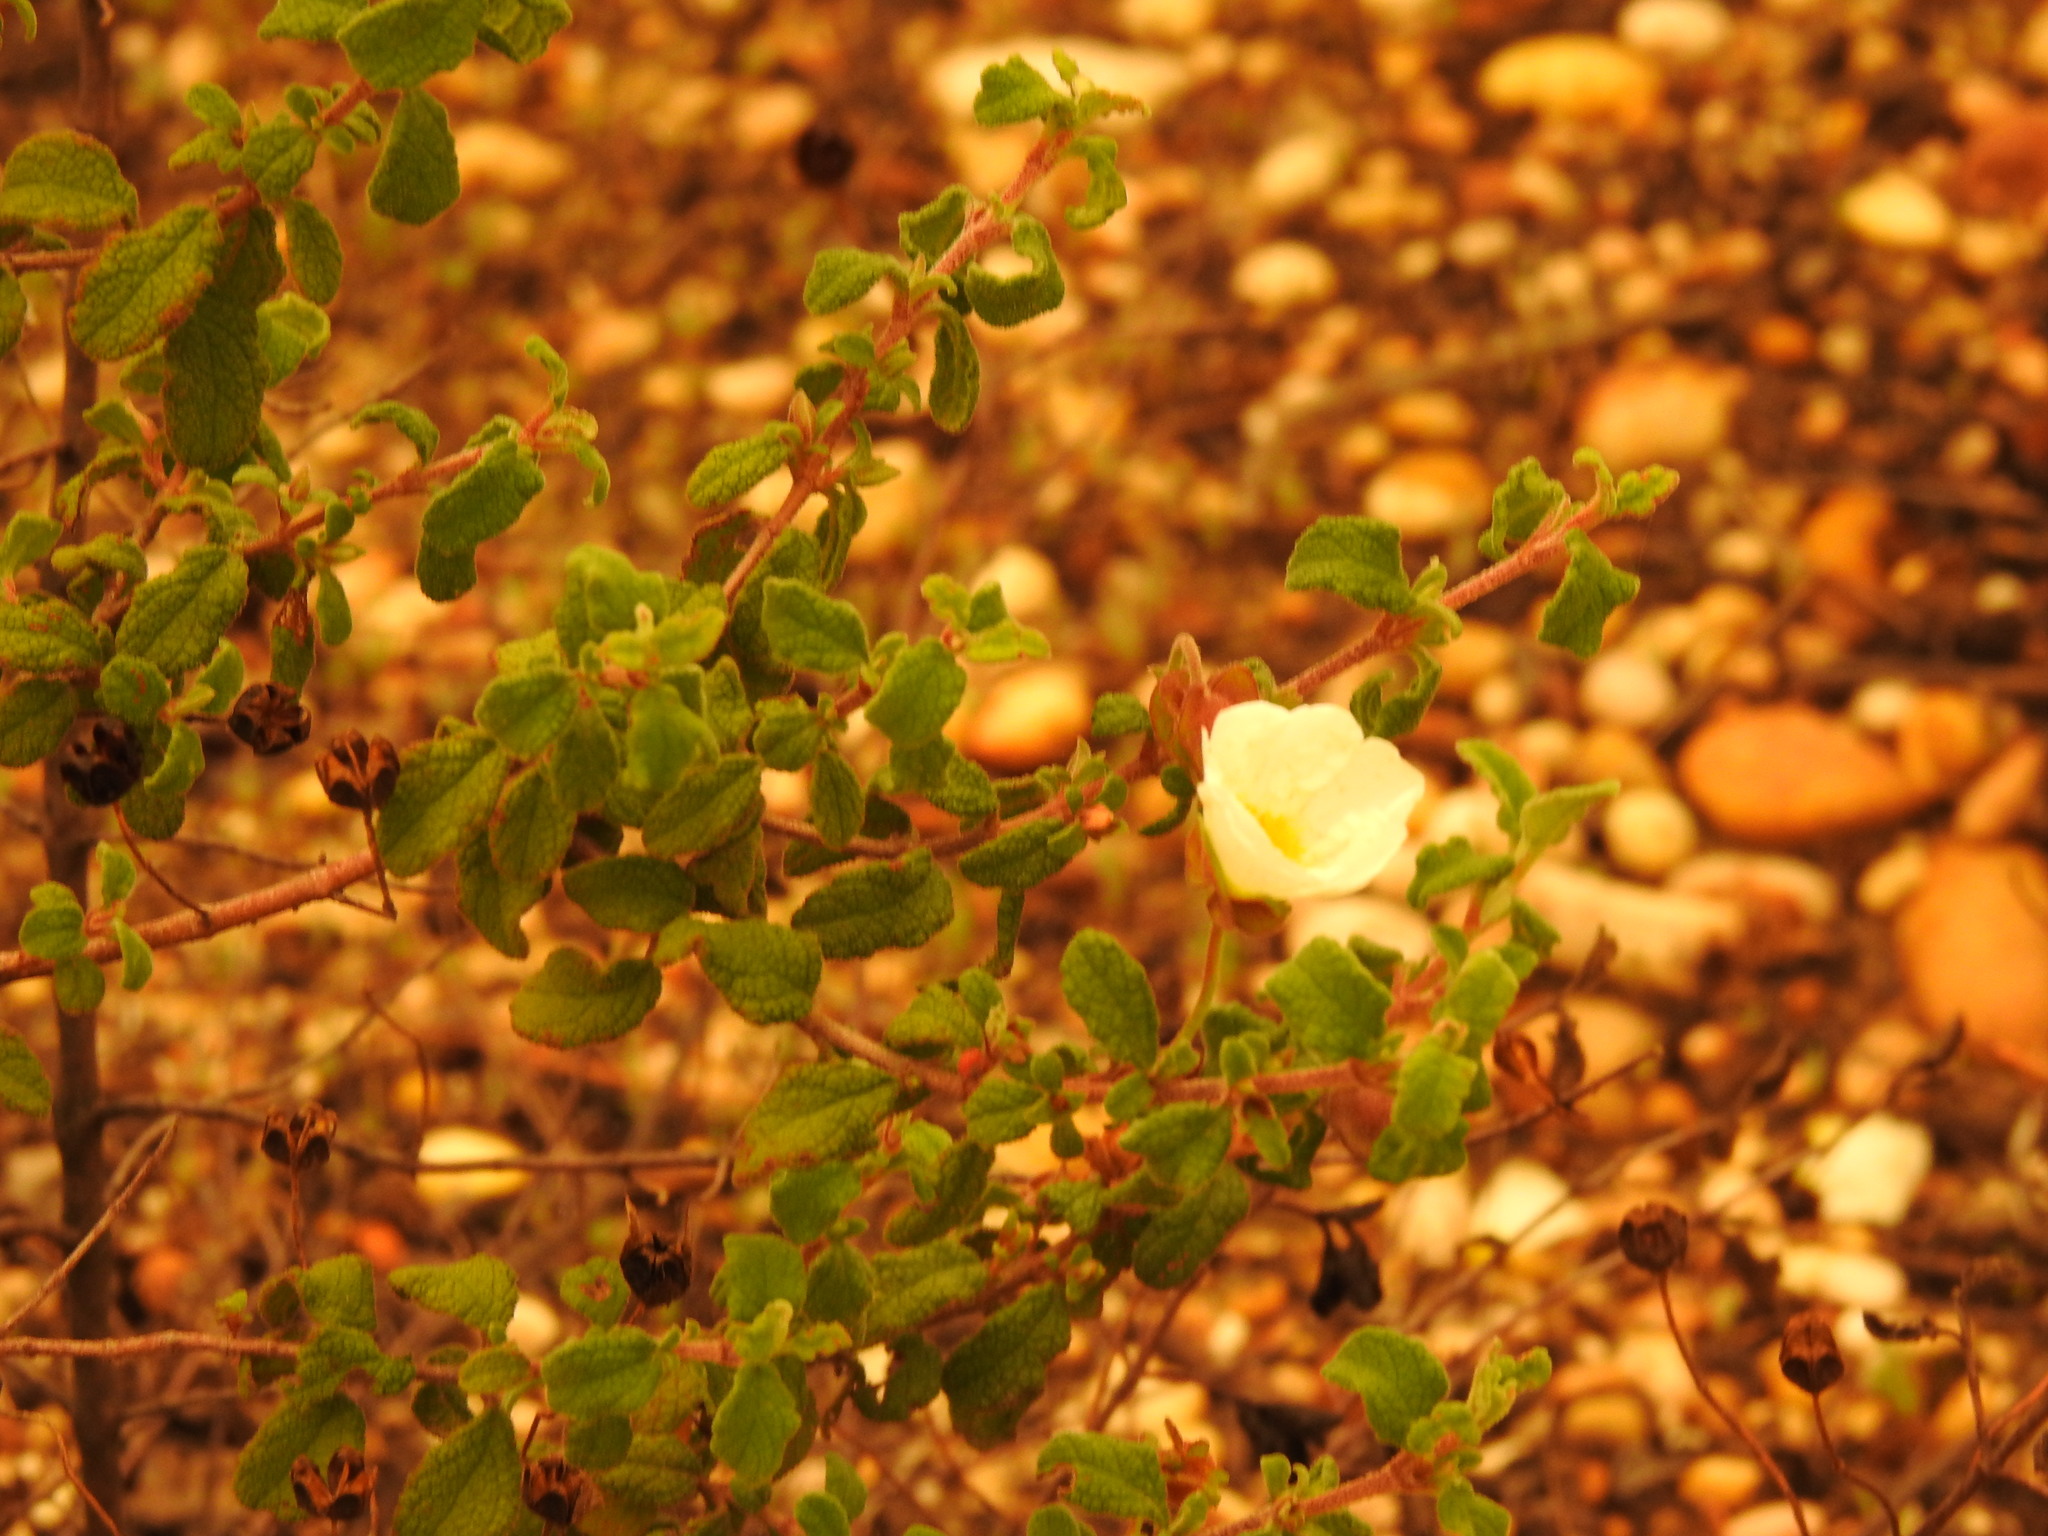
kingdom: Plantae
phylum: Tracheophyta
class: Magnoliopsida
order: Malvales
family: Cistaceae
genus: Cistus
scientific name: Cistus salviifolius
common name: Salvia cistus
